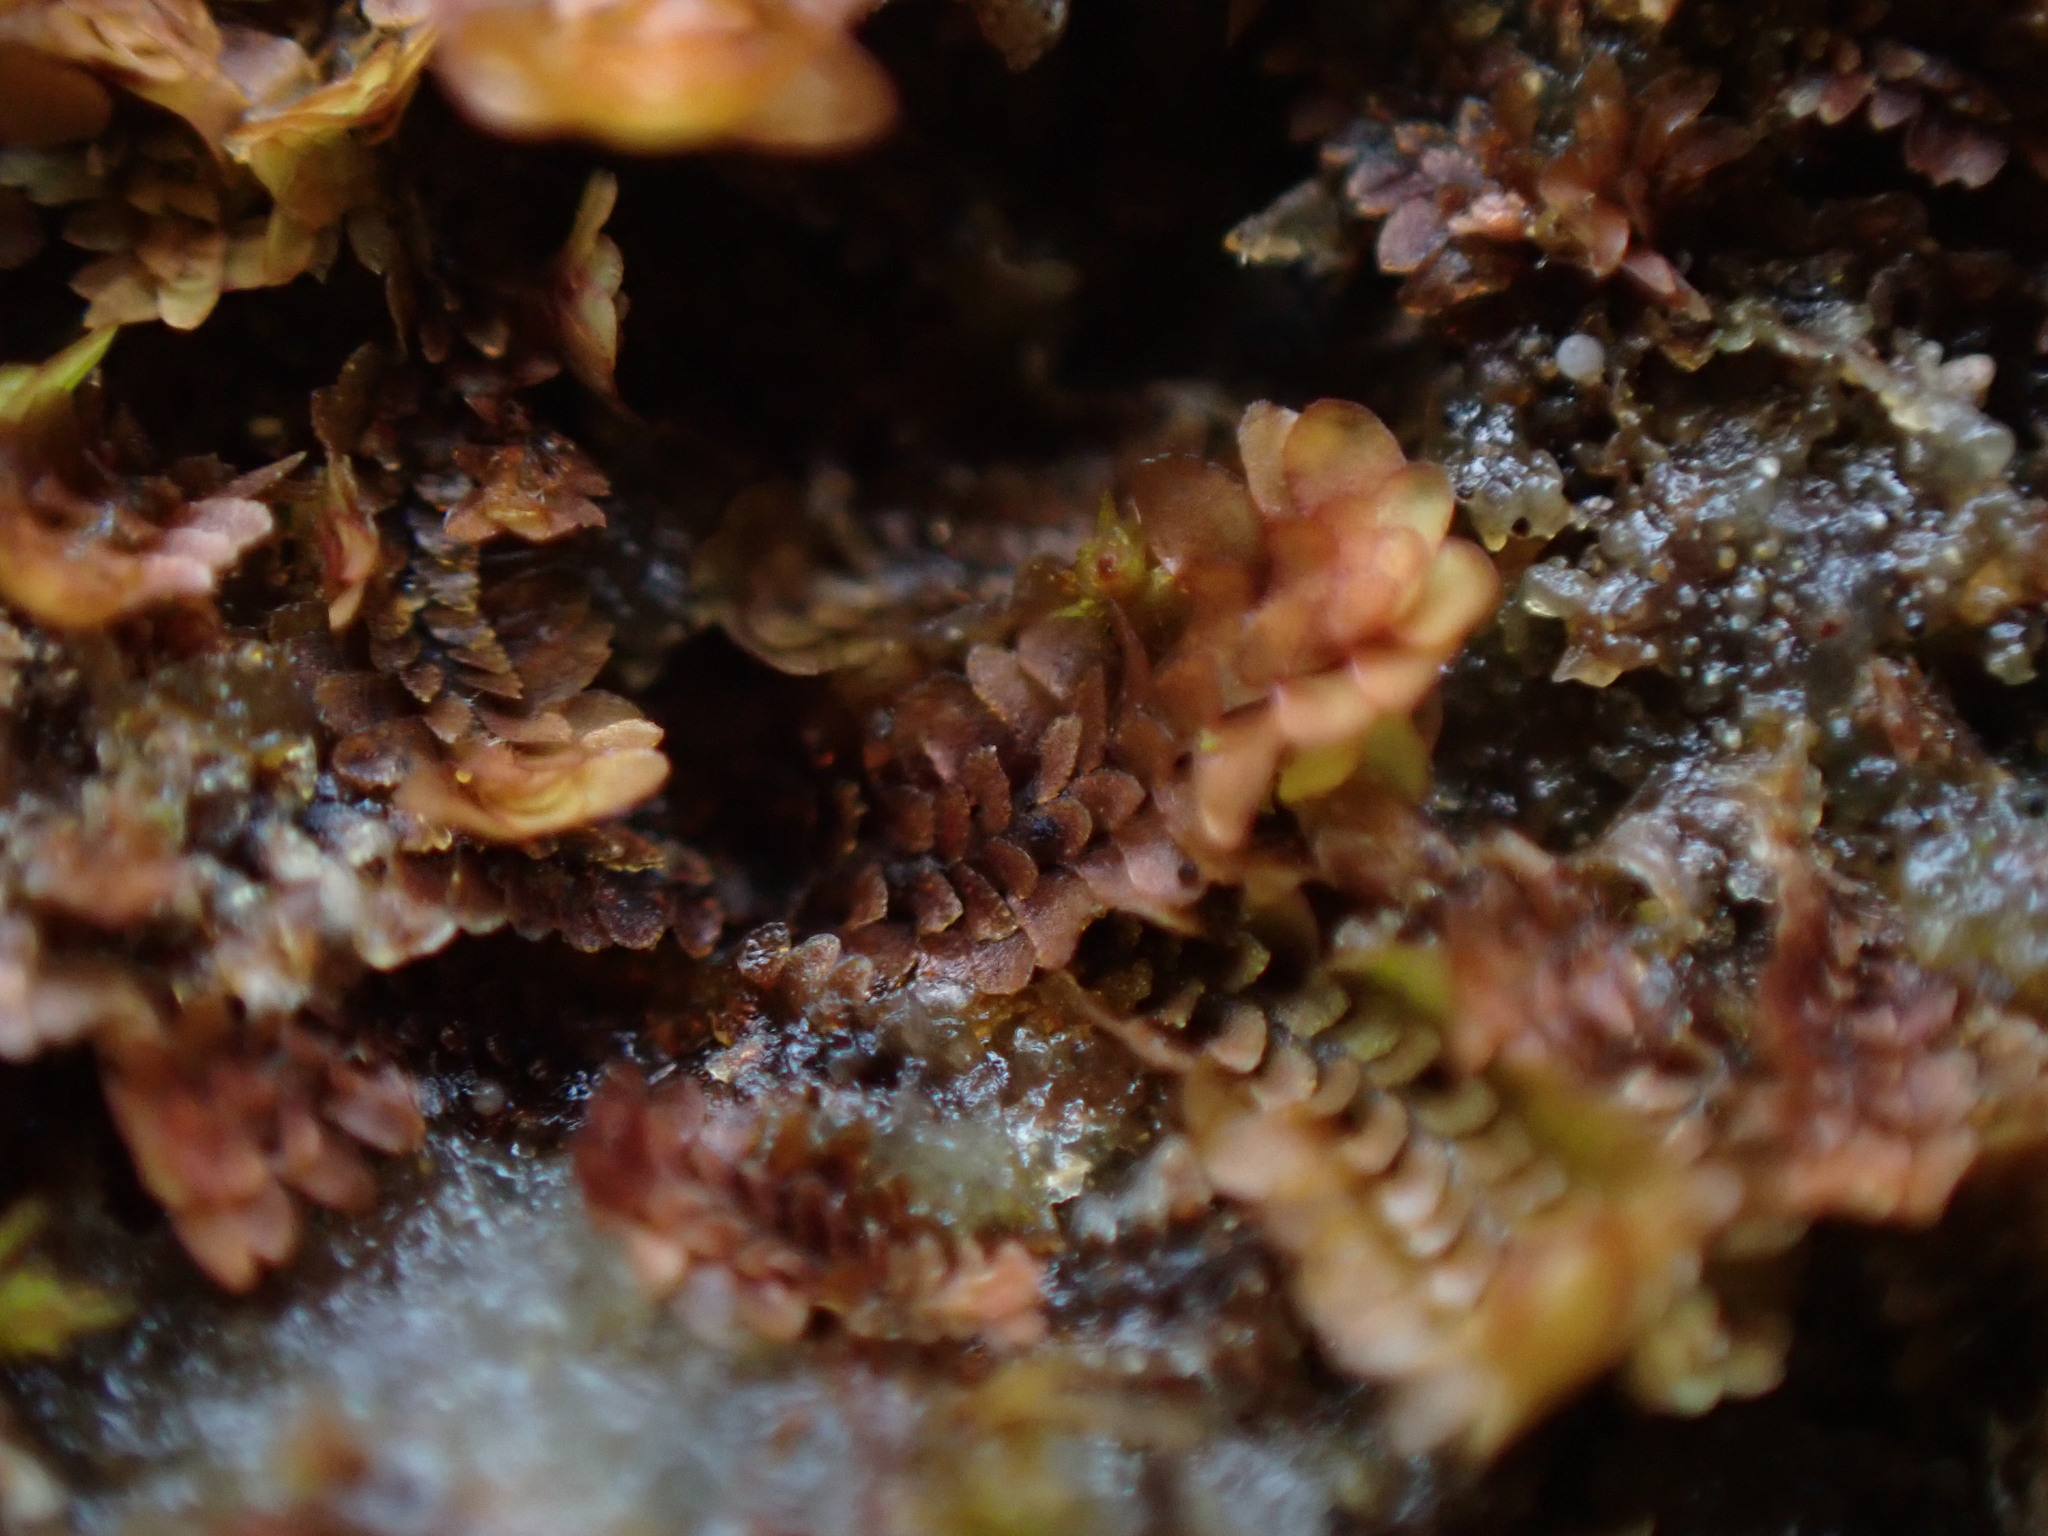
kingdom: Plantae
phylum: Marchantiophyta
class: Jungermanniopsida
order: Jungermanniales
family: Scapaniaceae
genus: Diplophyllum
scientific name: Diplophyllum obtusifolium
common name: Blunt-leaved earwort
